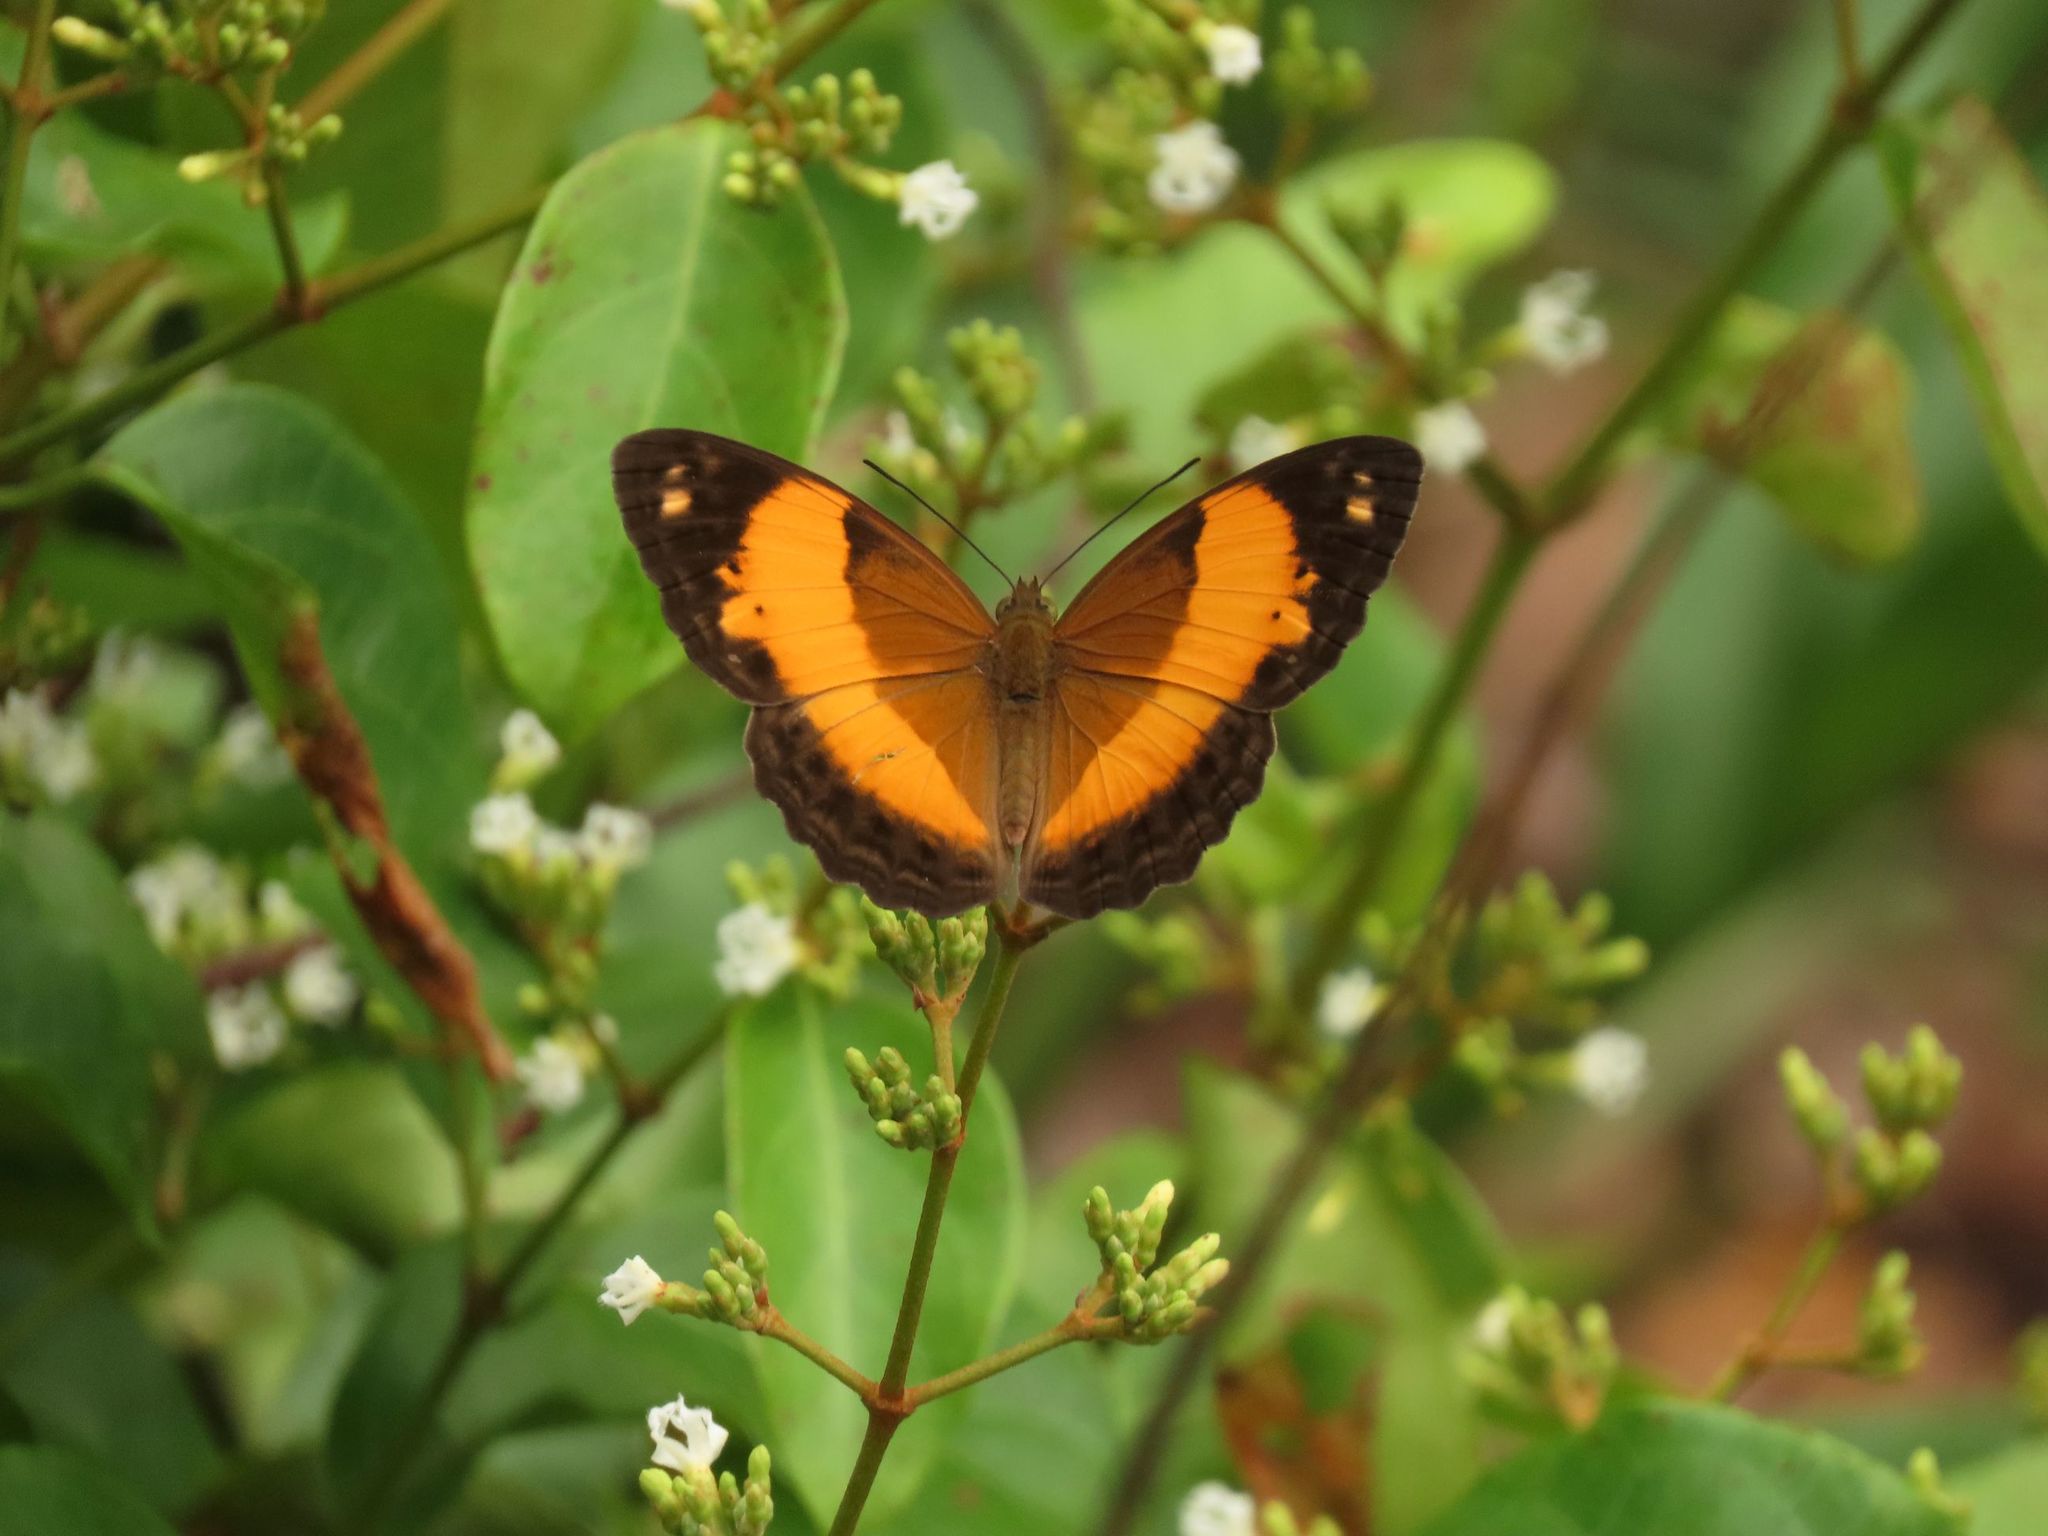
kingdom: Animalia
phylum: Arthropoda
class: Insecta
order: Lepidoptera
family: Nymphalidae
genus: Cupha
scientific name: Cupha prosope
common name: Bordered rustic
